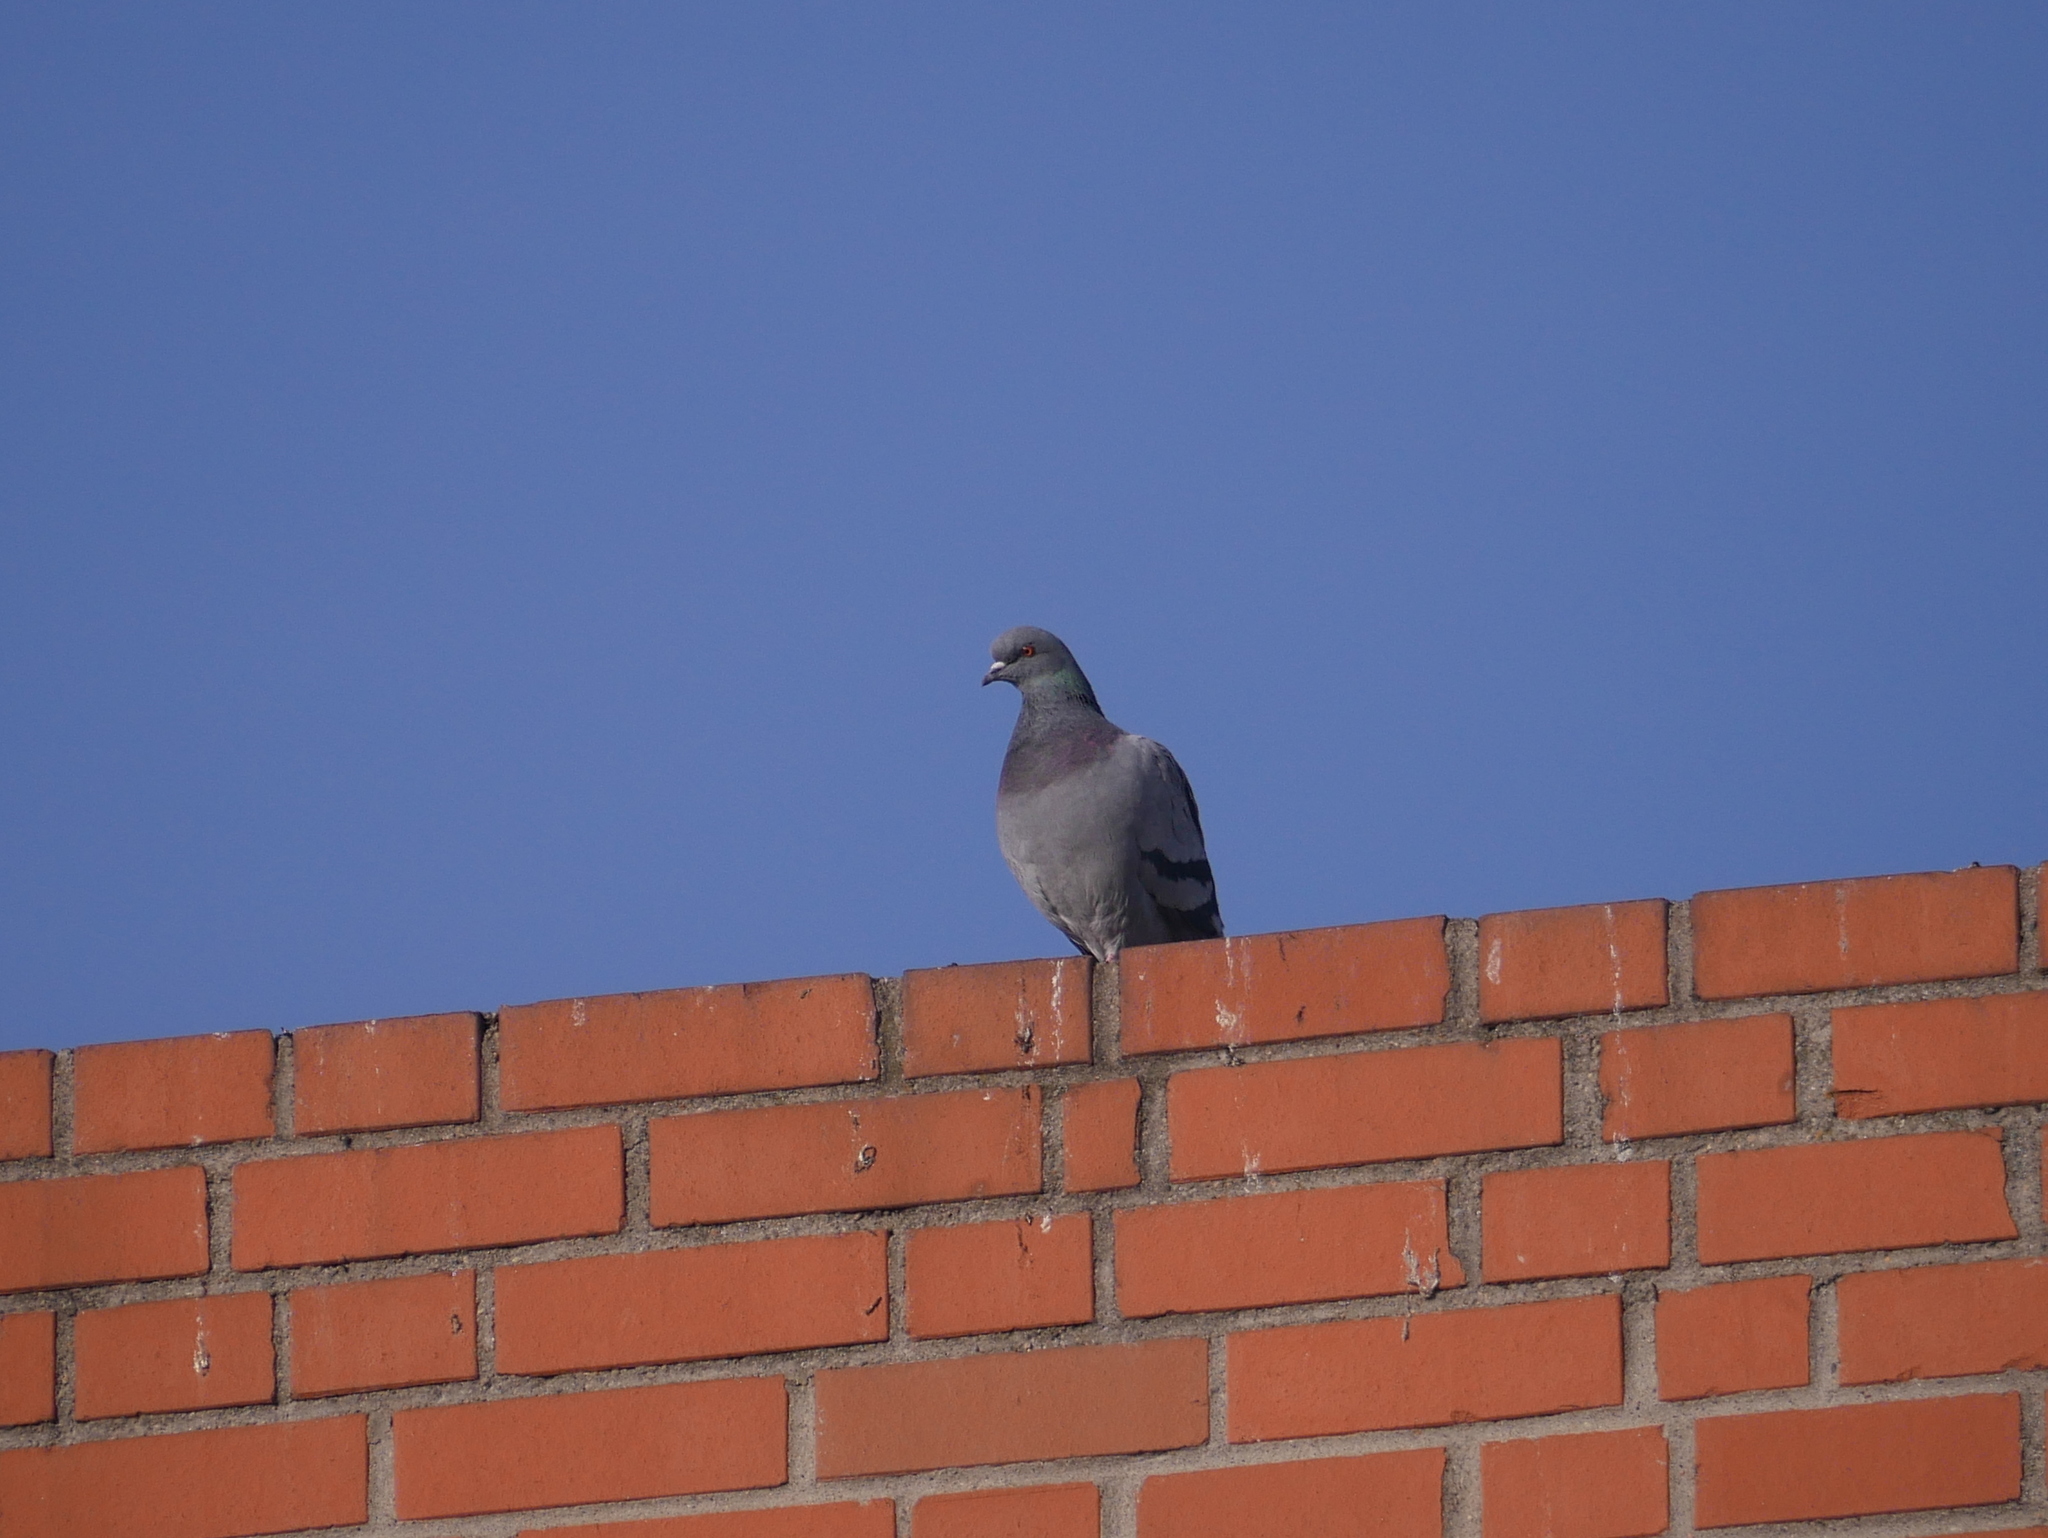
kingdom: Animalia
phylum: Chordata
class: Aves
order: Columbiformes
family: Columbidae
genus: Columba
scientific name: Columba livia
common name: Rock pigeon
